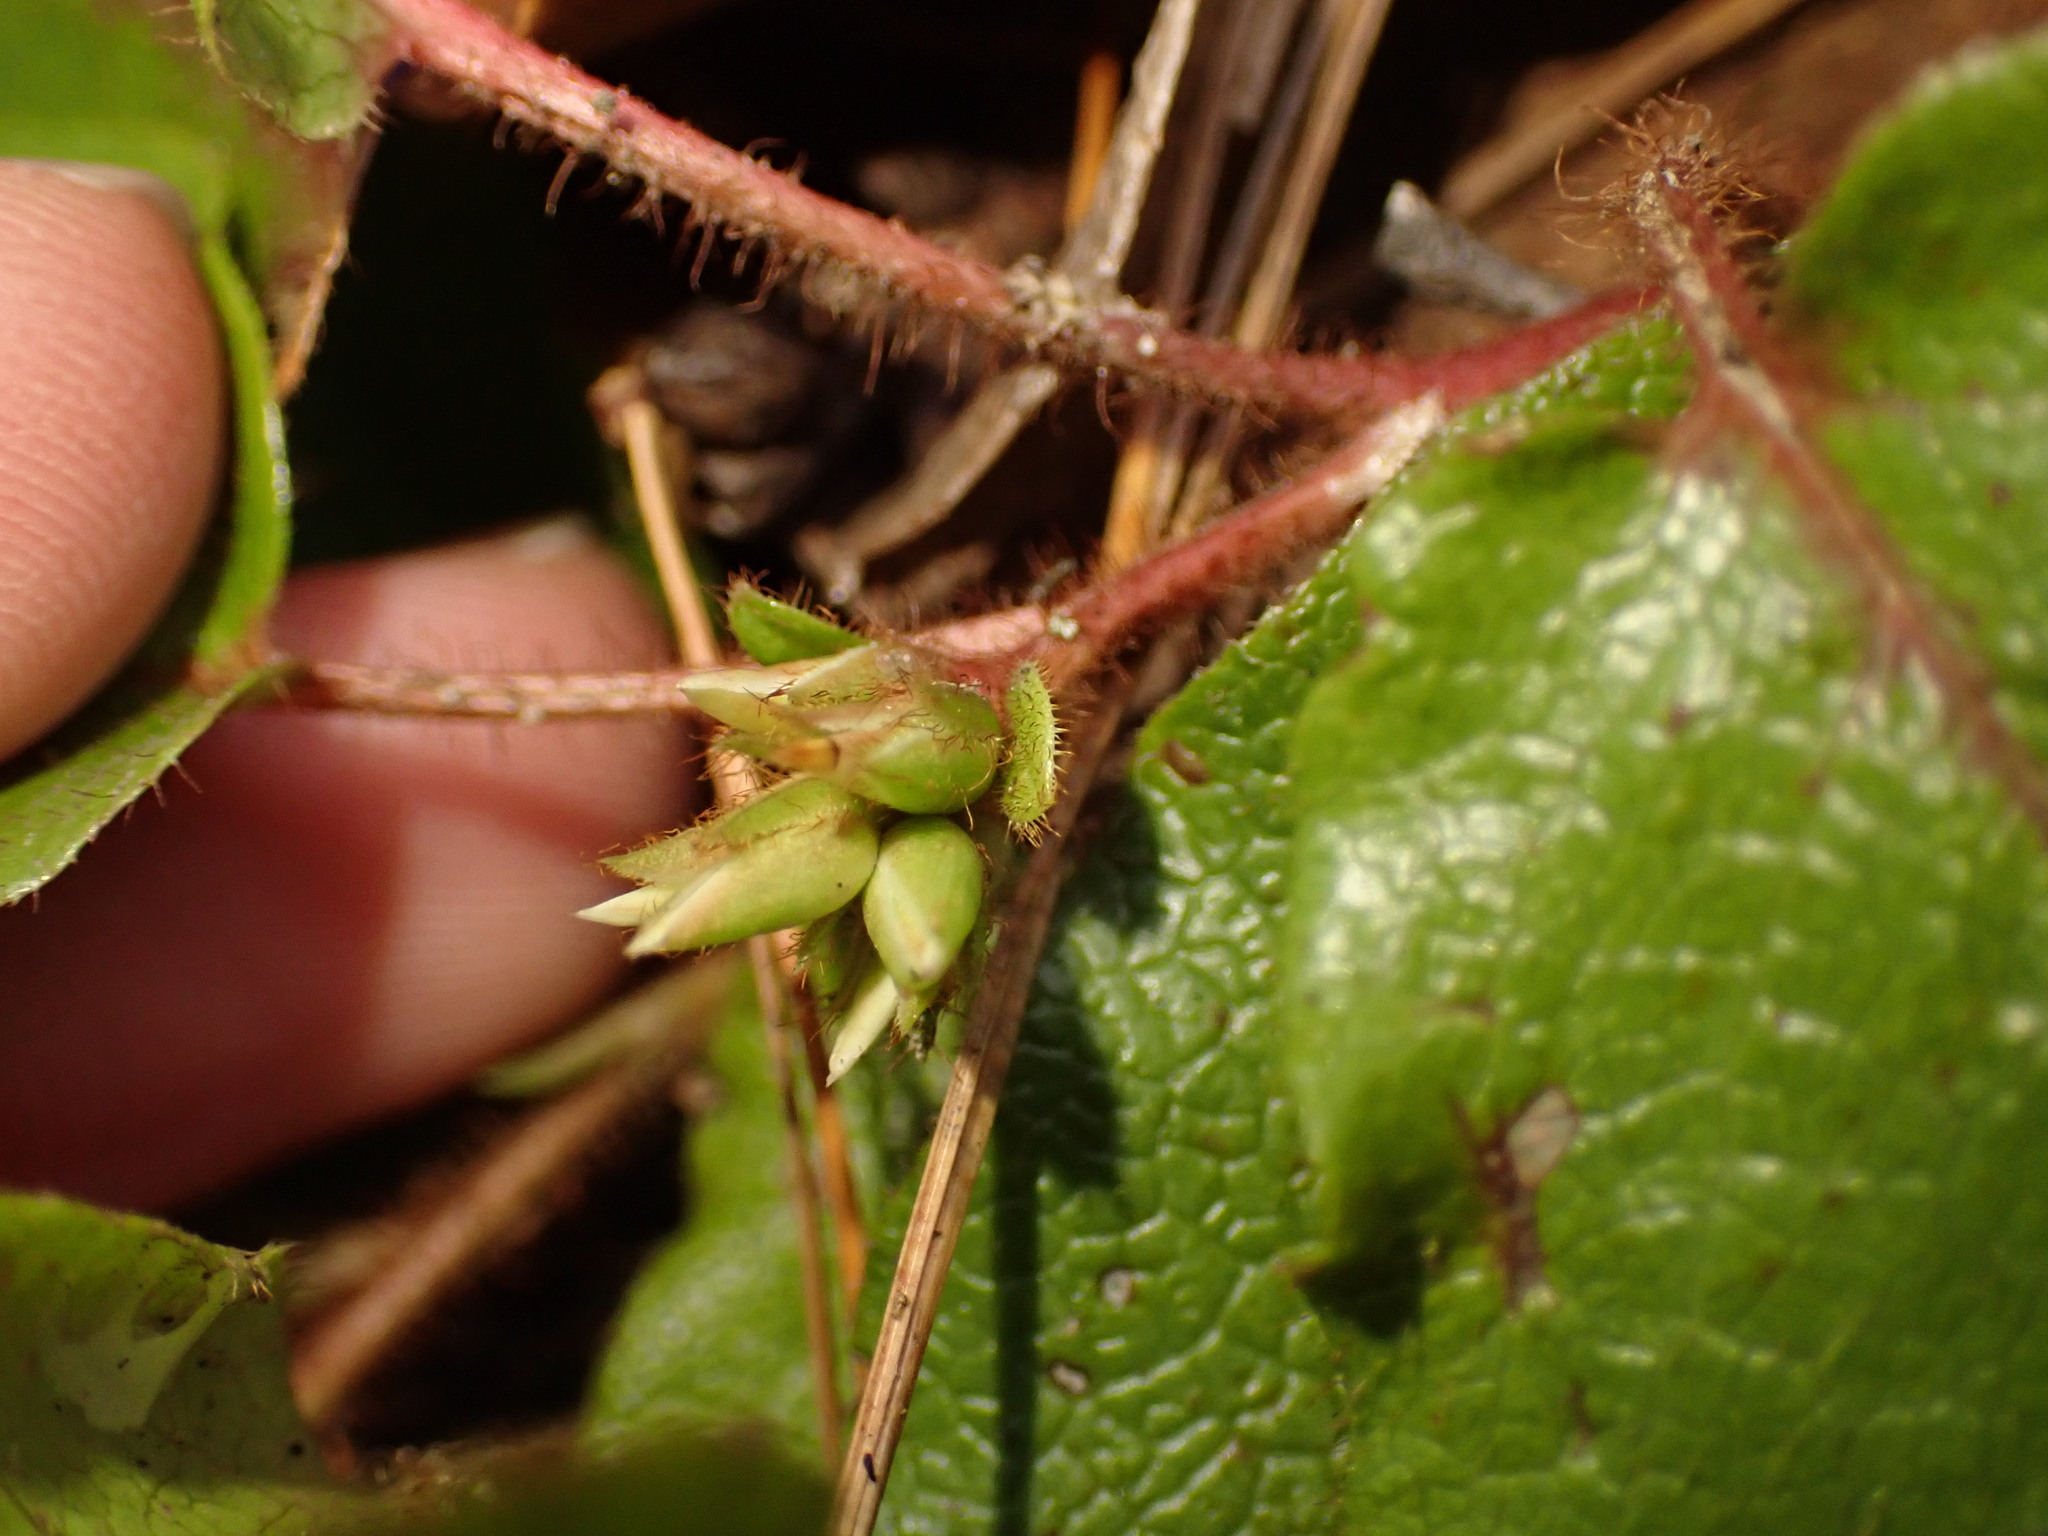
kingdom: Plantae
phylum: Tracheophyta
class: Magnoliopsida
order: Ericales
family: Ericaceae
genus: Epigaea
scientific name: Epigaea repens
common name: Gravelroot
